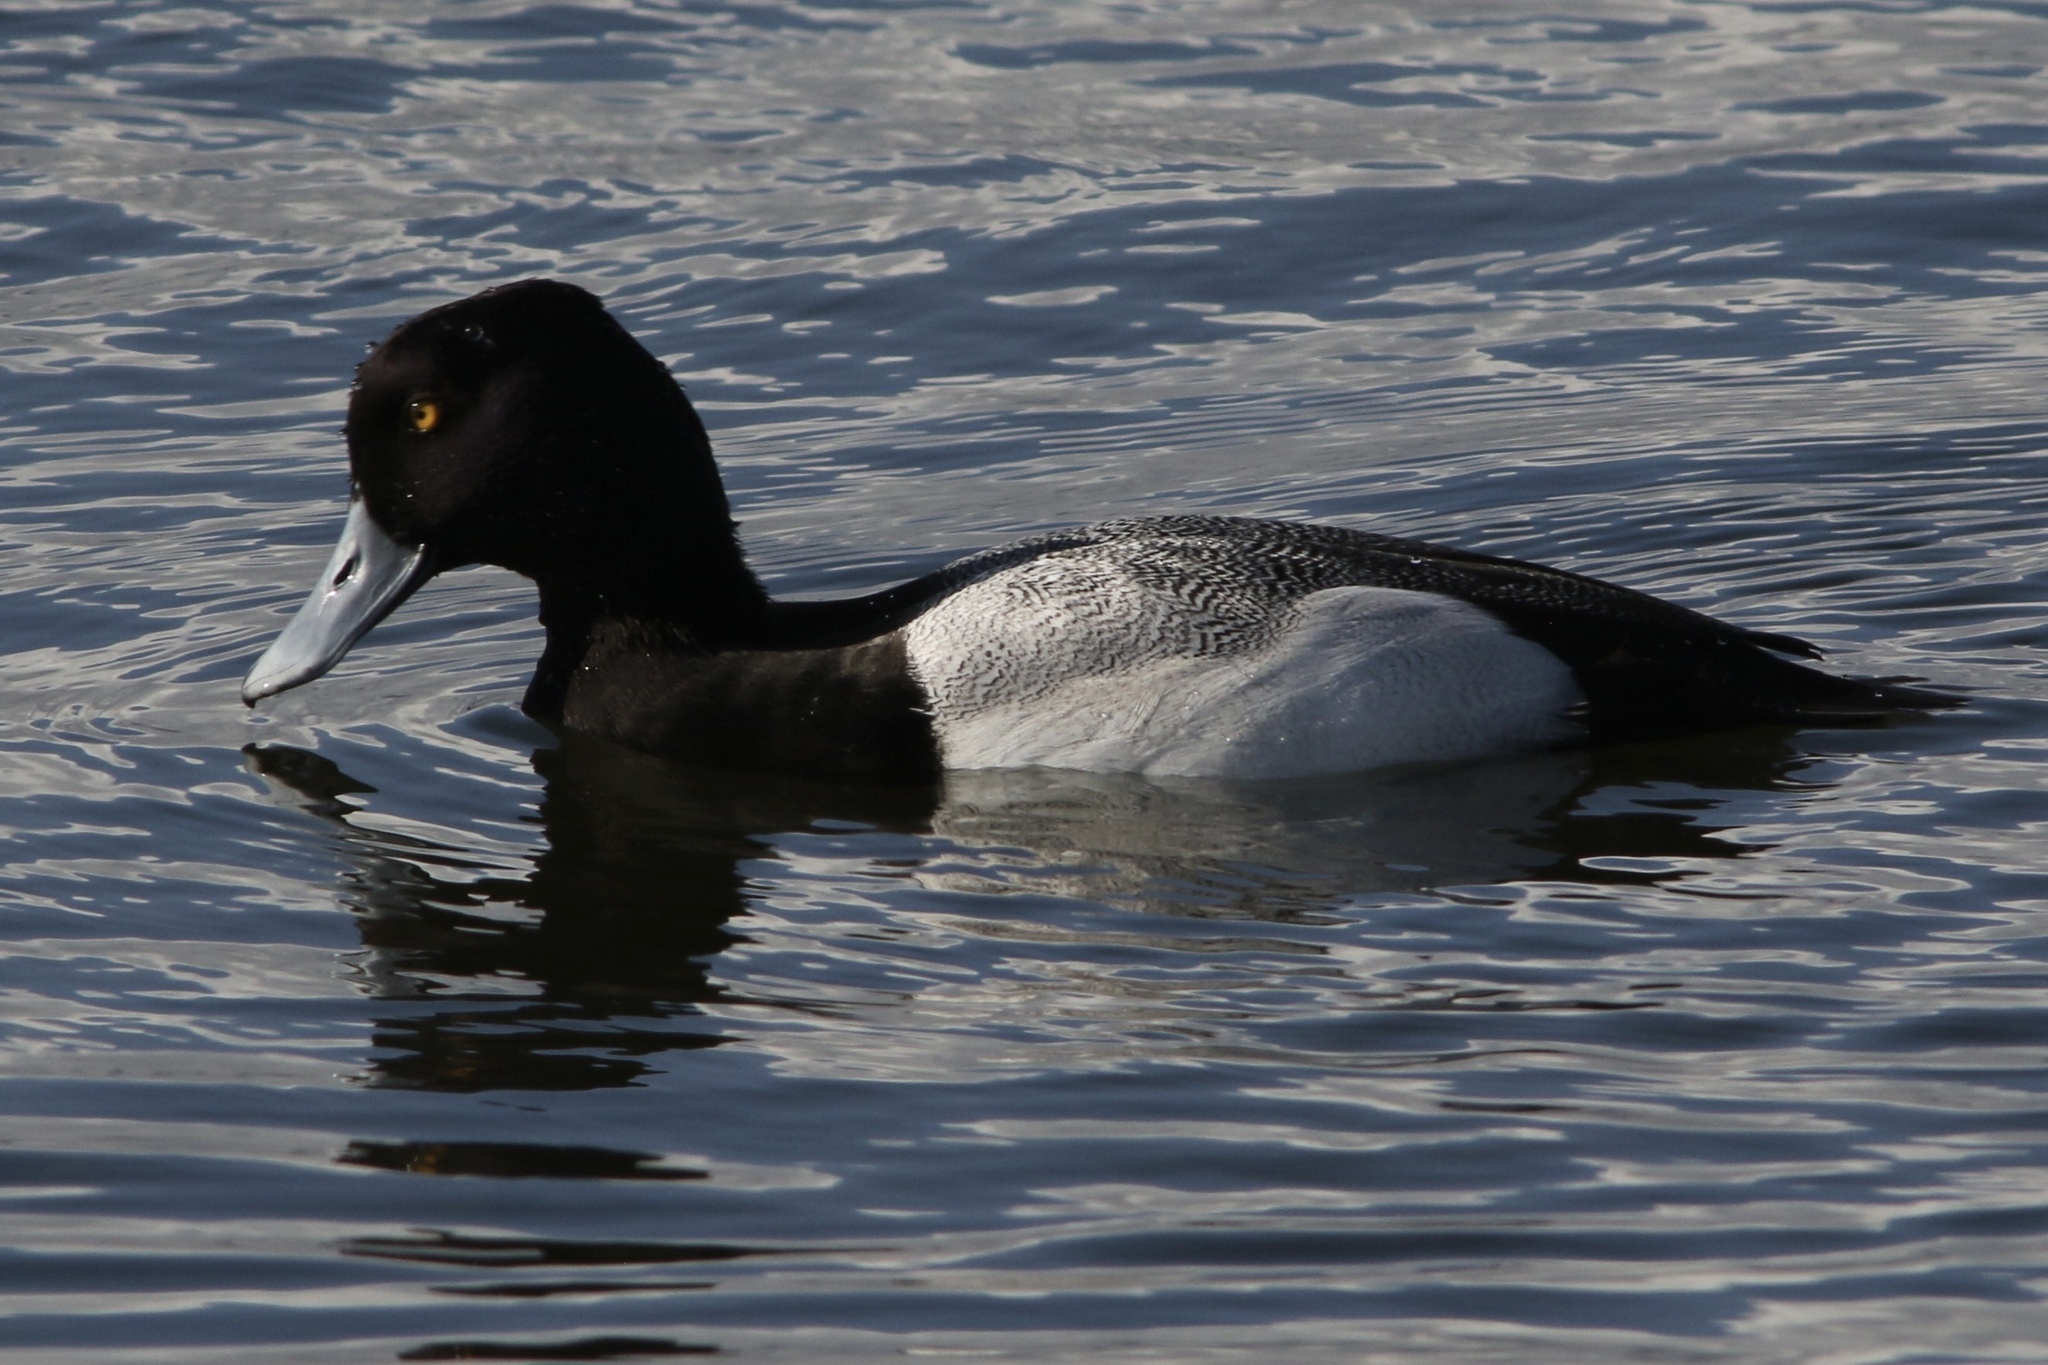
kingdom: Animalia
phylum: Chordata
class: Aves
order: Anseriformes
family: Anatidae
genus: Aythya
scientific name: Aythya affinis
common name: Lesser scaup
